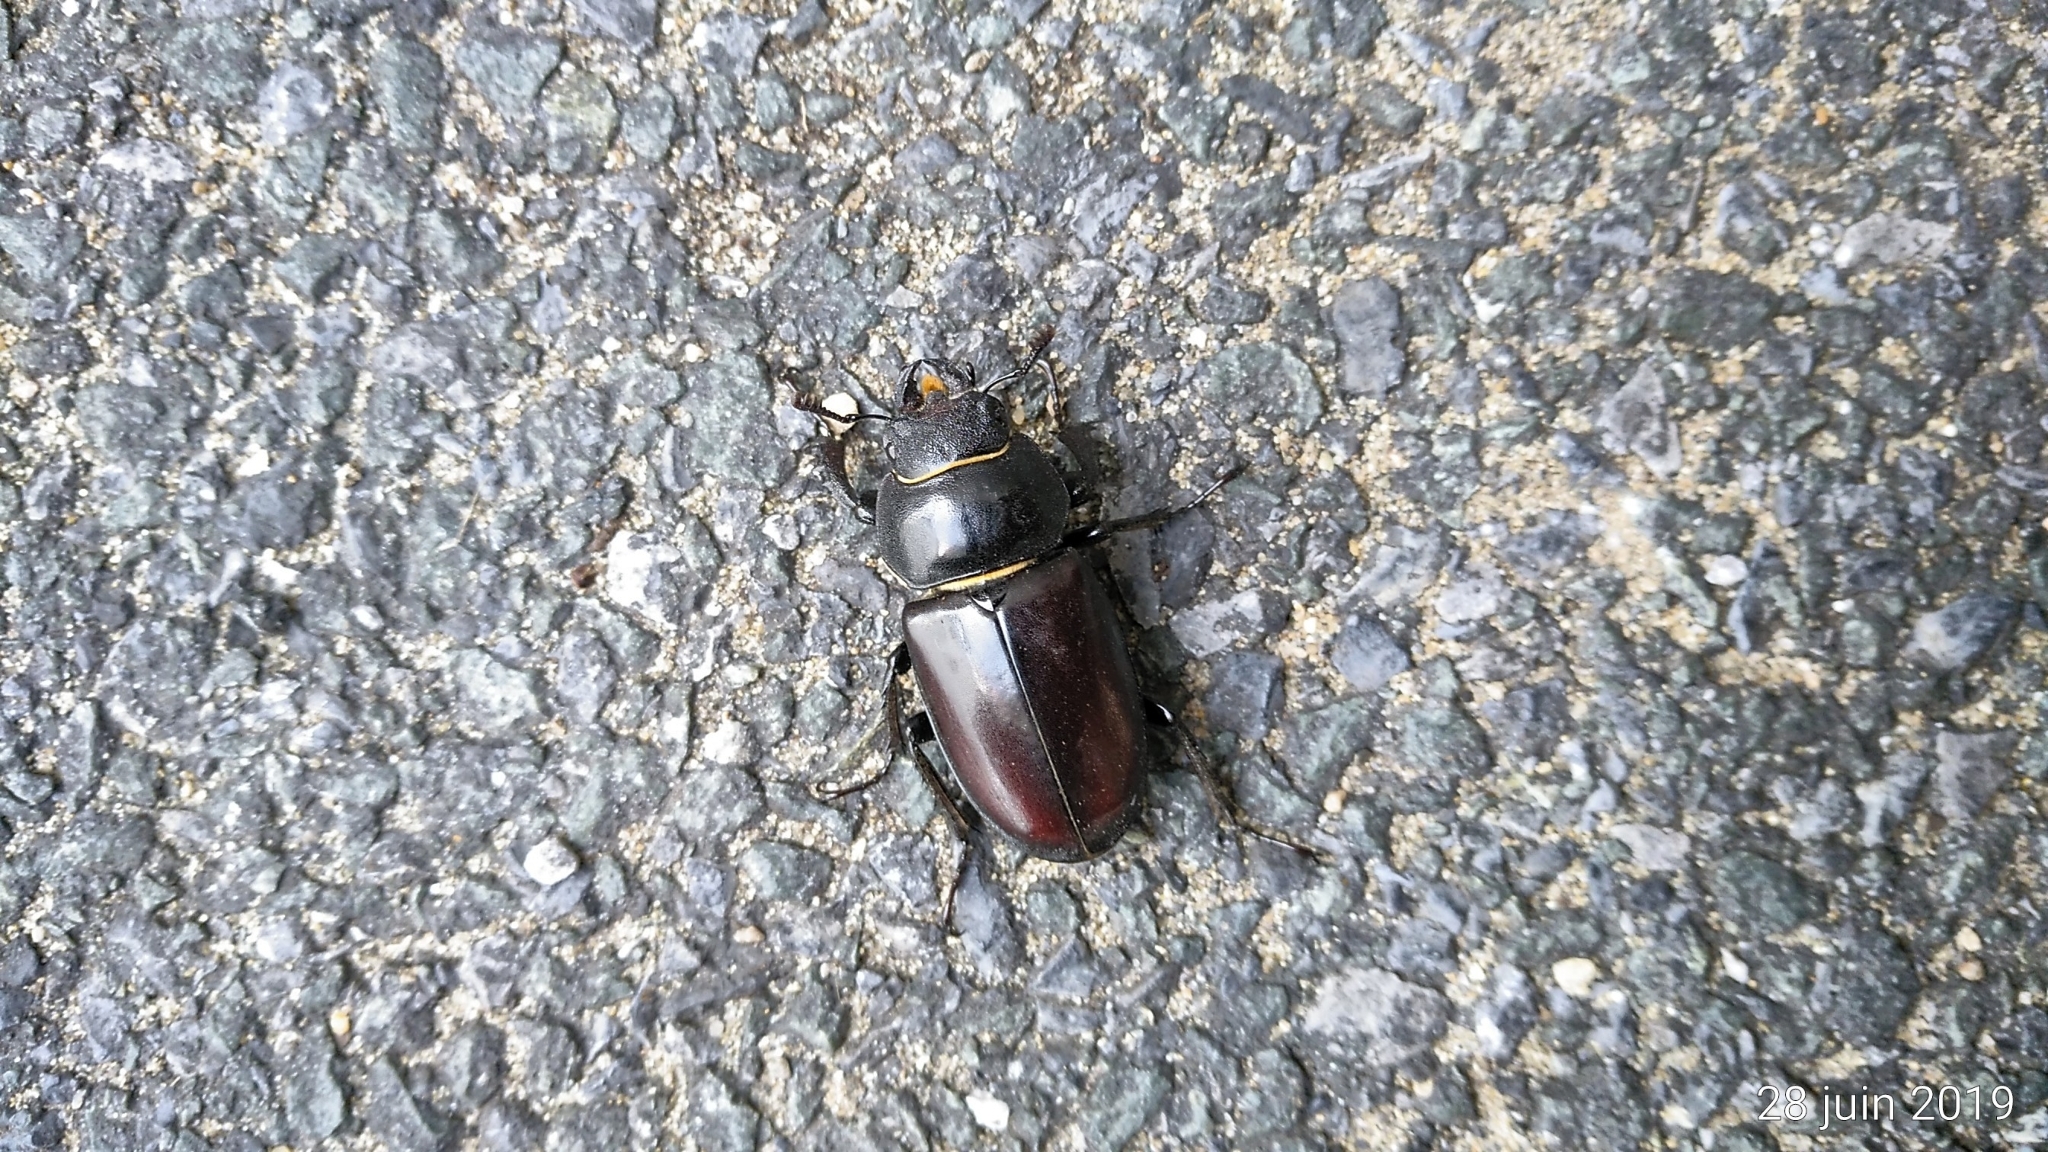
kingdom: Animalia
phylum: Arthropoda
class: Insecta
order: Coleoptera
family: Lucanidae
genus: Lucanus
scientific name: Lucanus cervus
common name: Stag beetle
